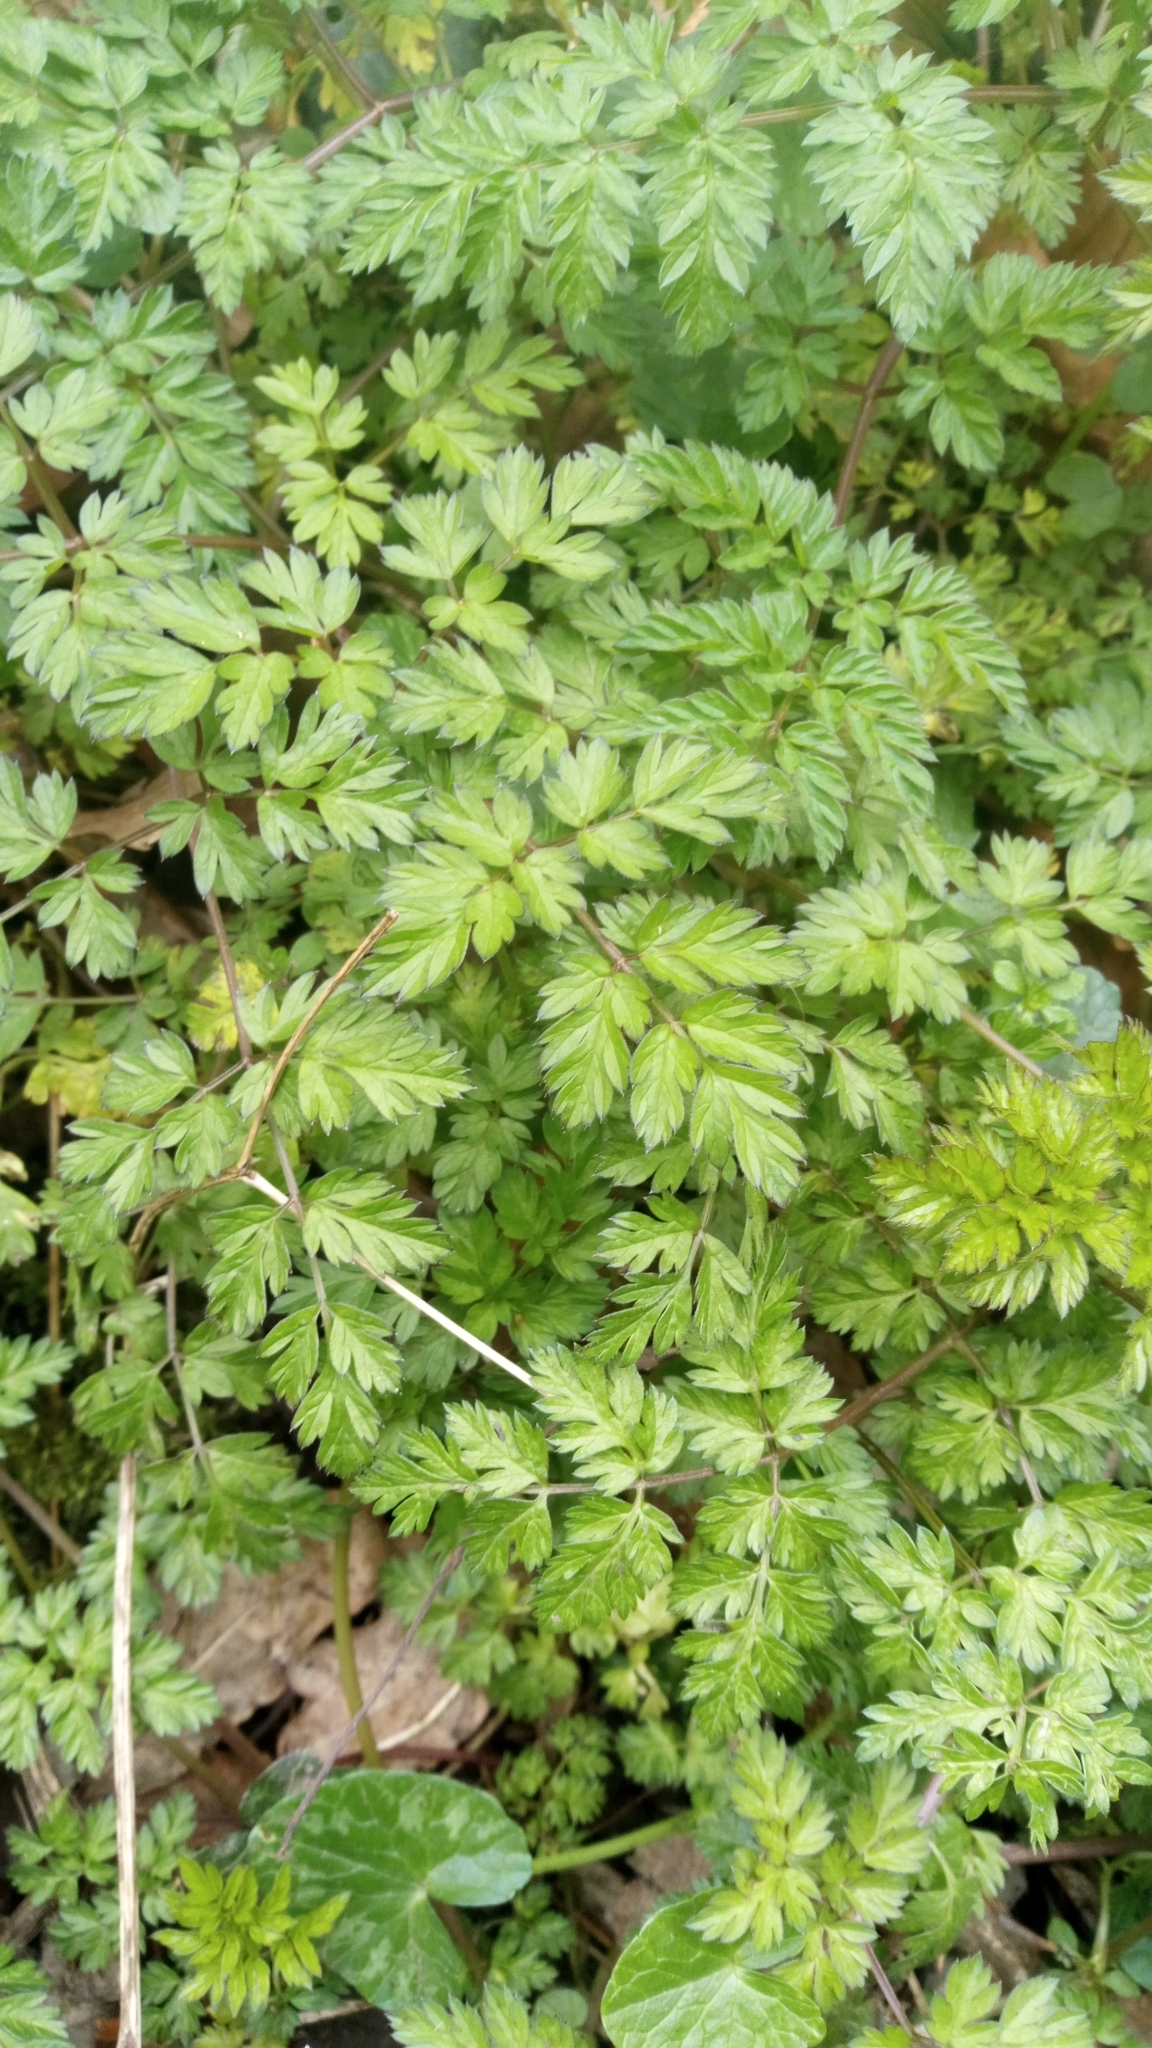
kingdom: Plantae
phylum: Tracheophyta
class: Magnoliopsida
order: Apiales
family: Apiaceae
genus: Anthriscus
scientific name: Anthriscus sylvestris
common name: Cow parsley
